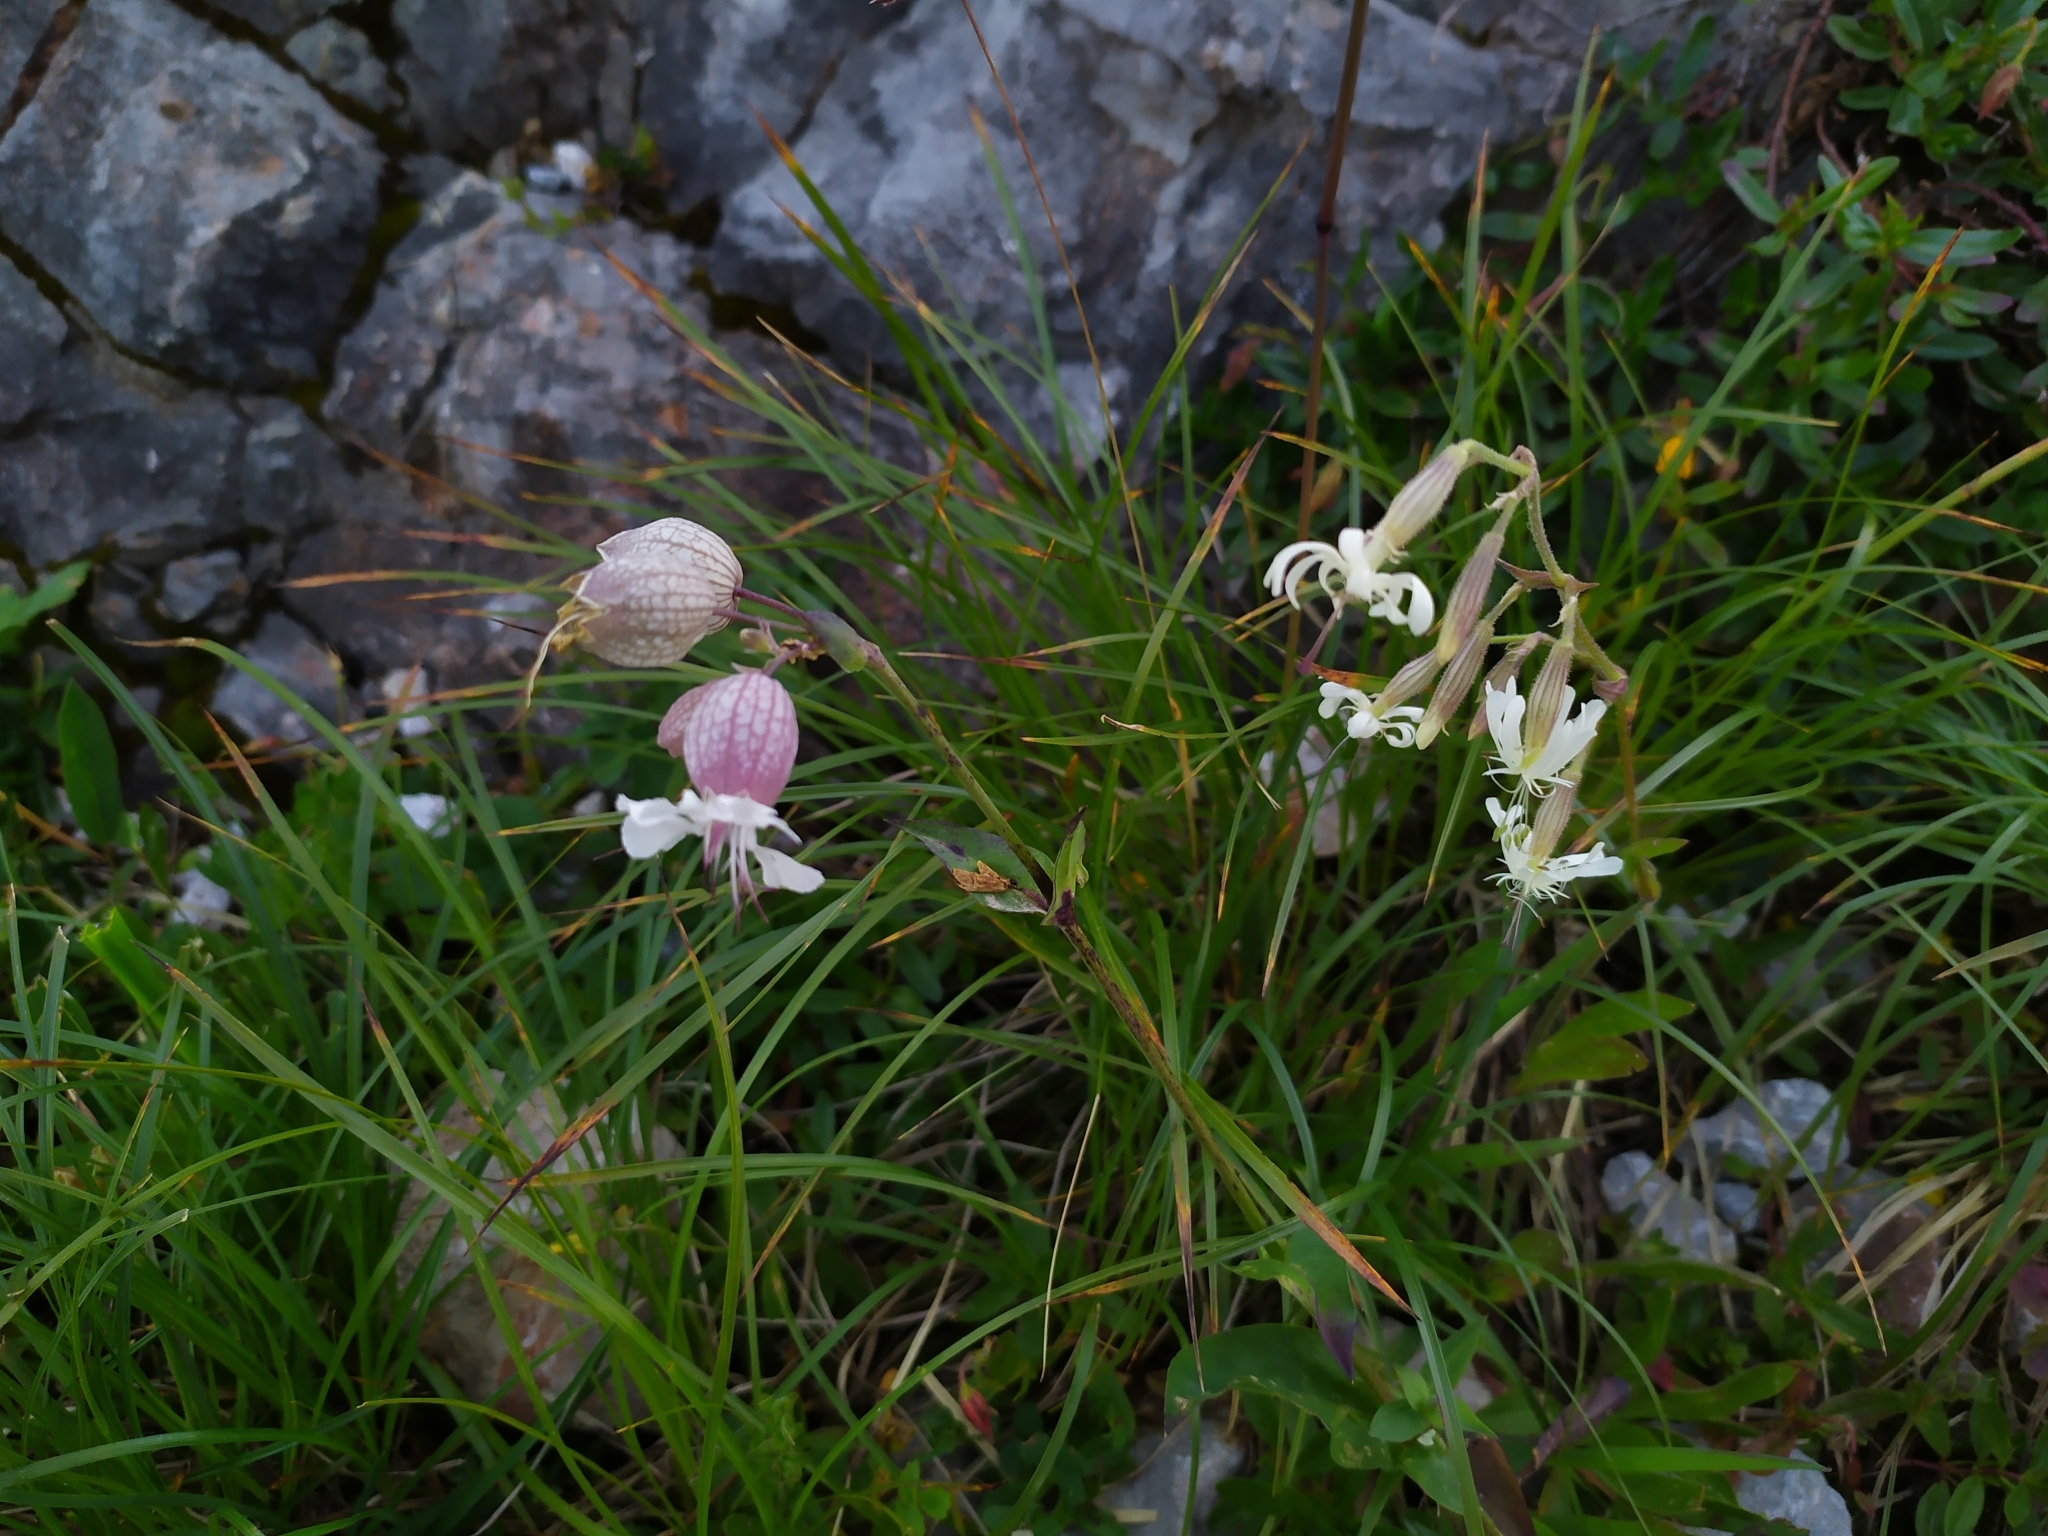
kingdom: Plantae
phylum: Tracheophyta
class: Magnoliopsida
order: Caryophyllales
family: Caryophyllaceae
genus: Silene
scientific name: Silene nutans
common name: Nottingham catchfly
